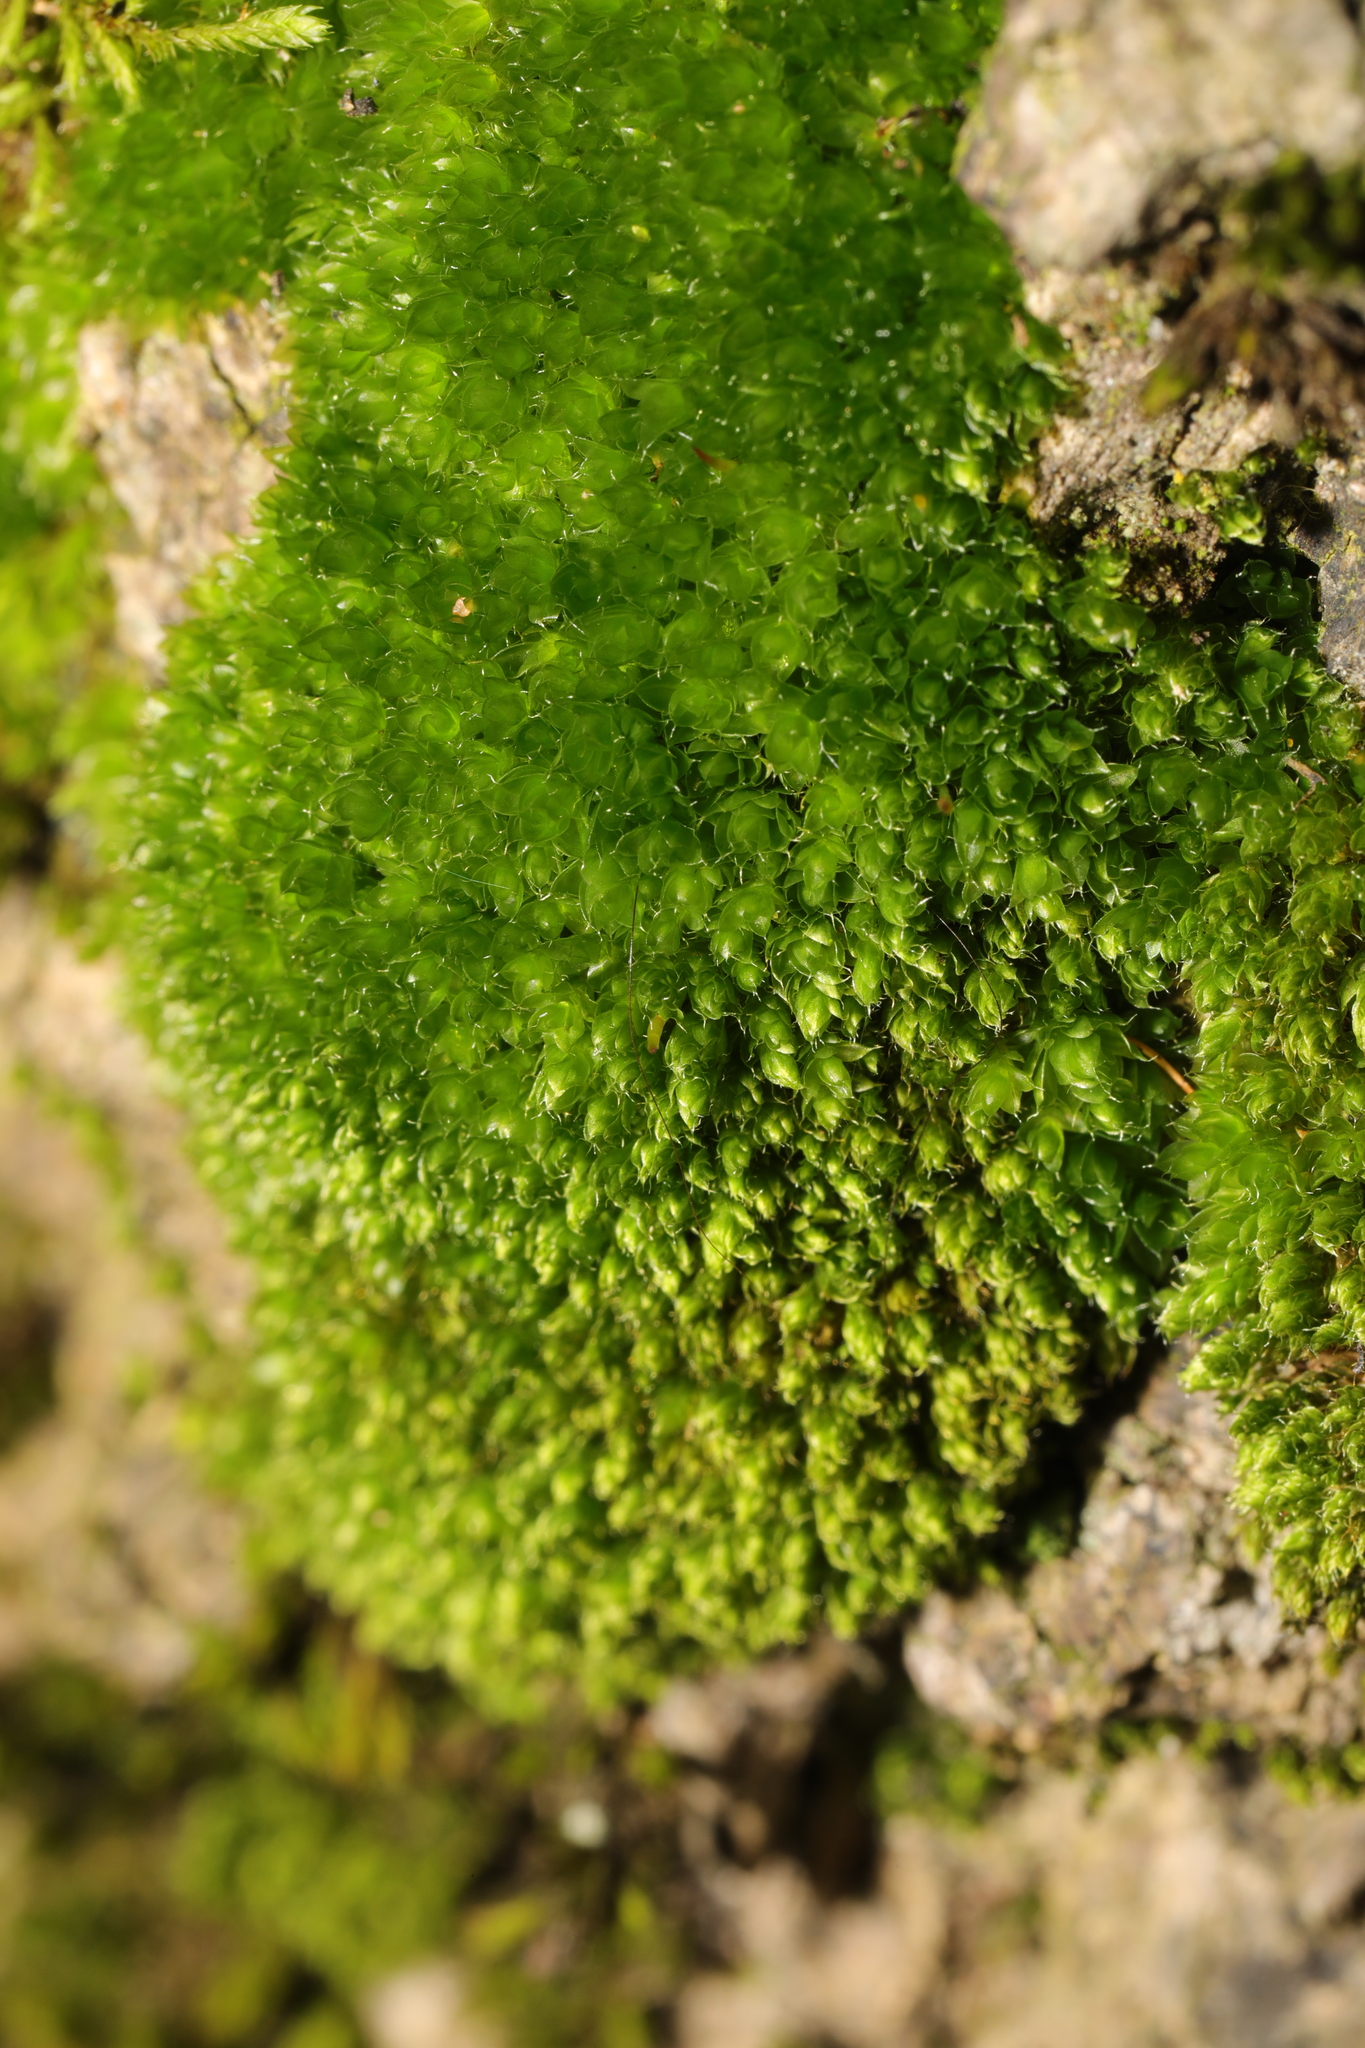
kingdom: Plantae
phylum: Bryophyta
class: Bryopsida
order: Bryales
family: Bryaceae
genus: Rosulabryum
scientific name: Rosulabryum capillare
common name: Capillary thread-moss
